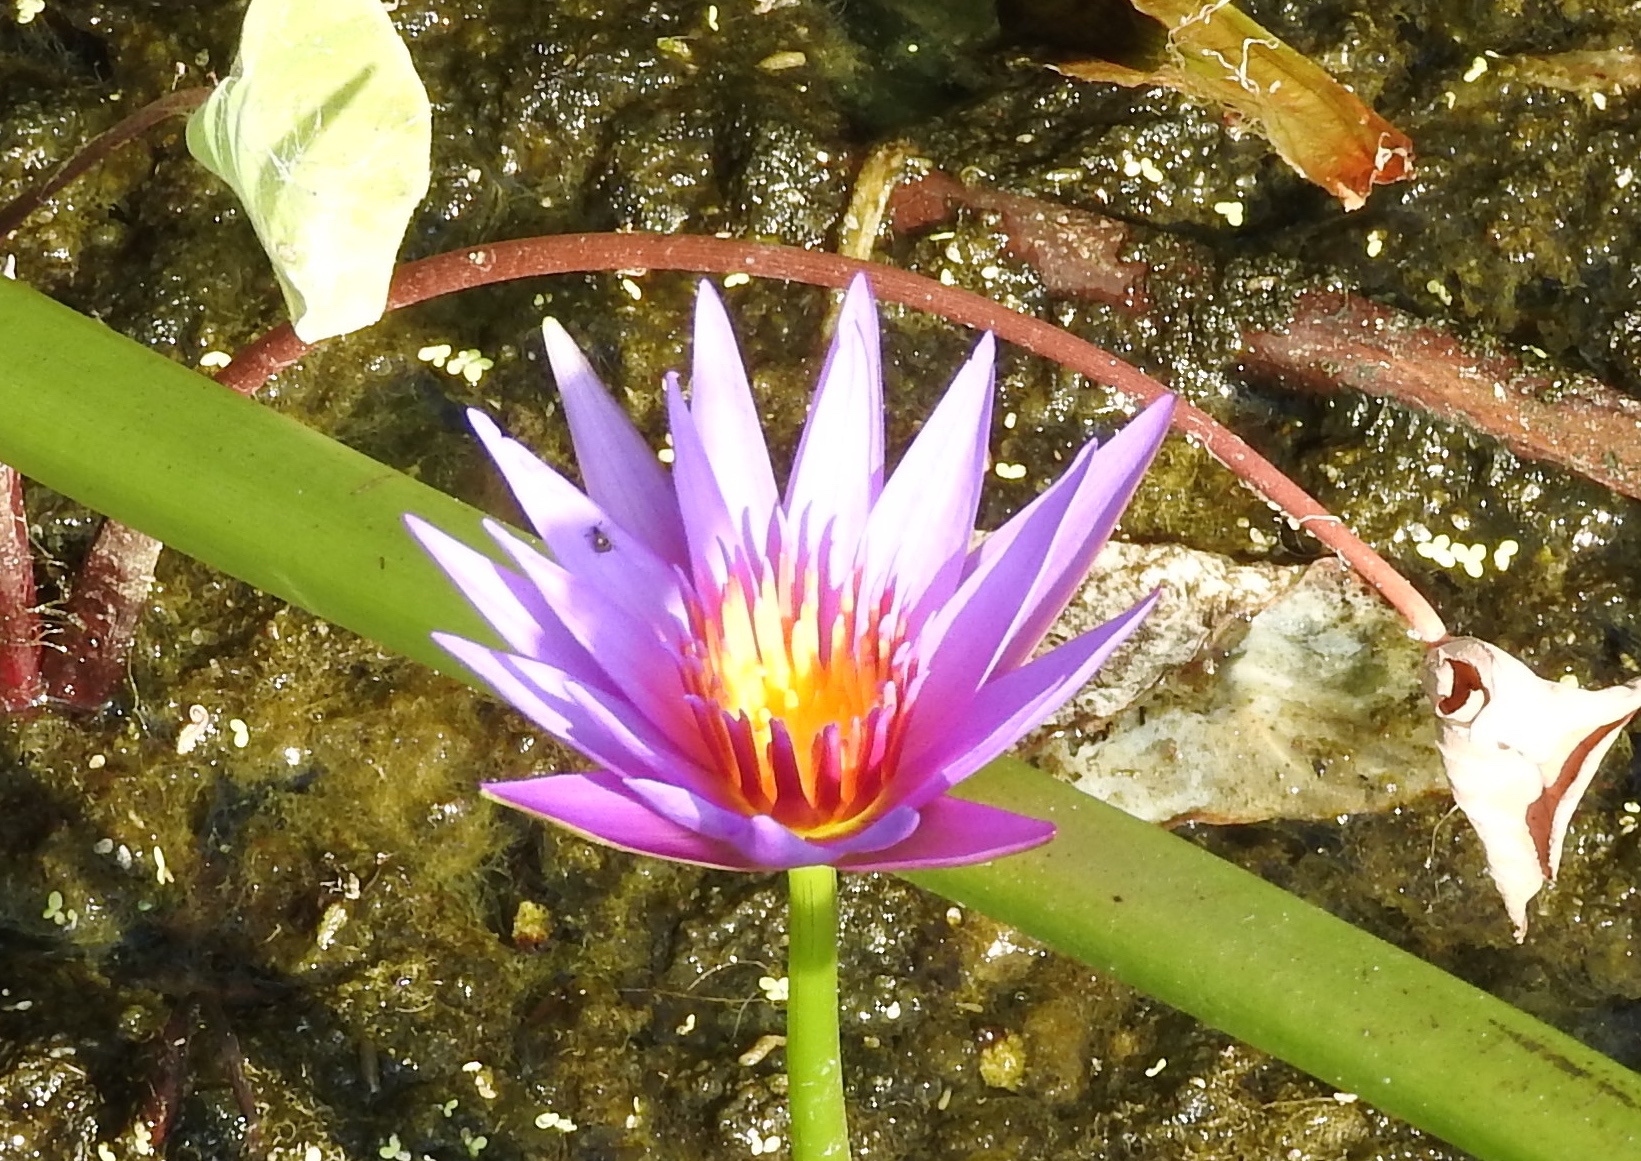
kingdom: Plantae
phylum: Tracheophyta
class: Magnoliopsida
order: Nymphaeales
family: Nymphaeaceae
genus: Nymphaea
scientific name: Nymphaea
